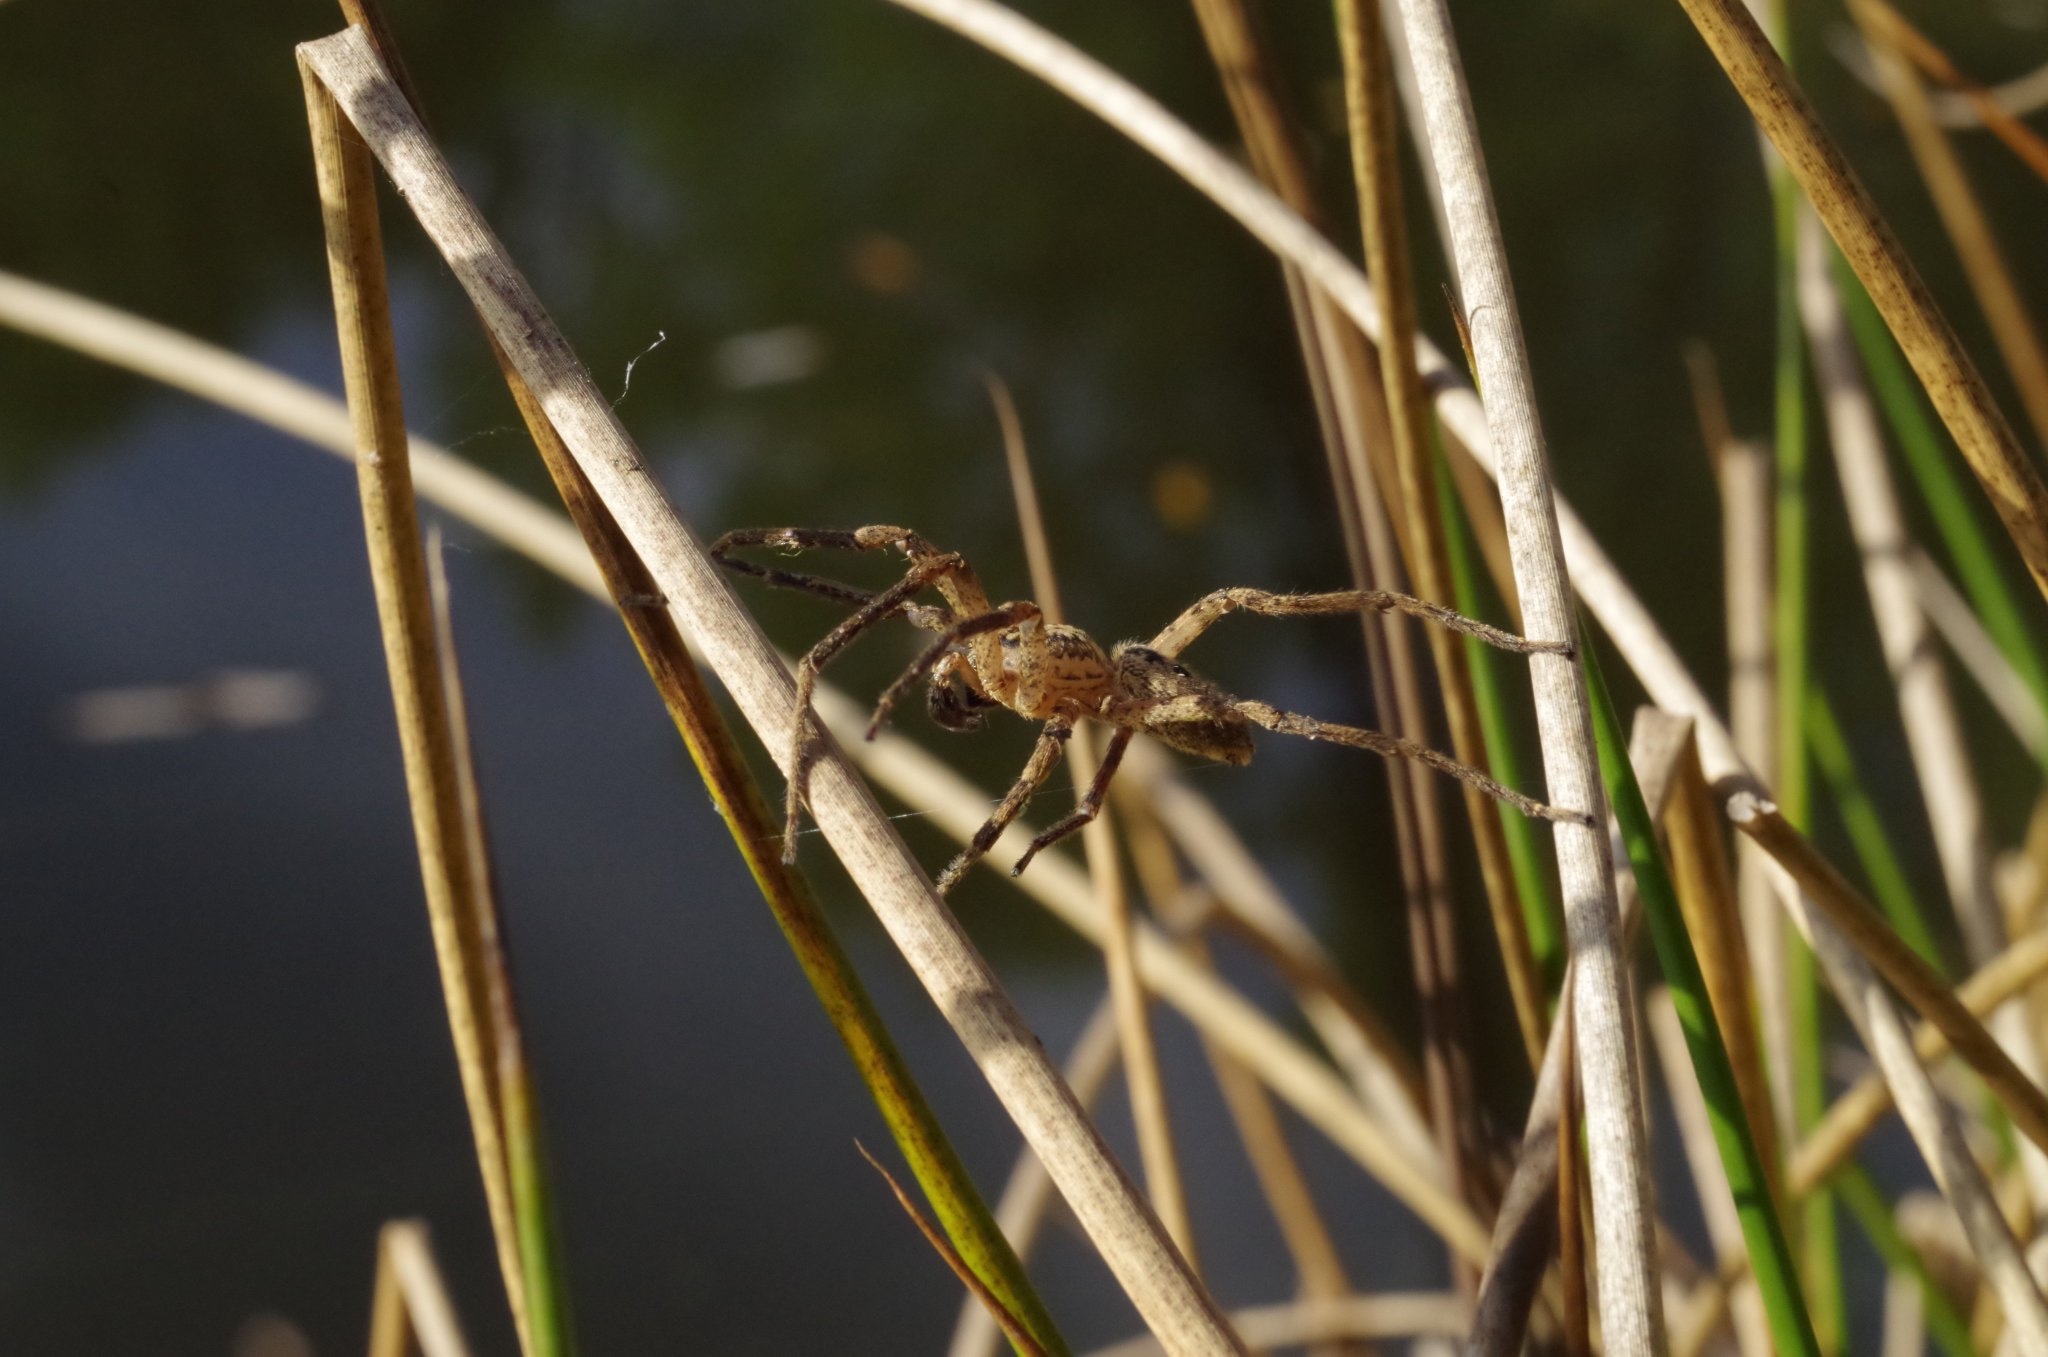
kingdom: Animalia
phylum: Arthropoda
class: Arachnida
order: Araneae
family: Zoropsidae
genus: Zoropsis
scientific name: Zoropsis spinimana
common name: Zoropsid spider
